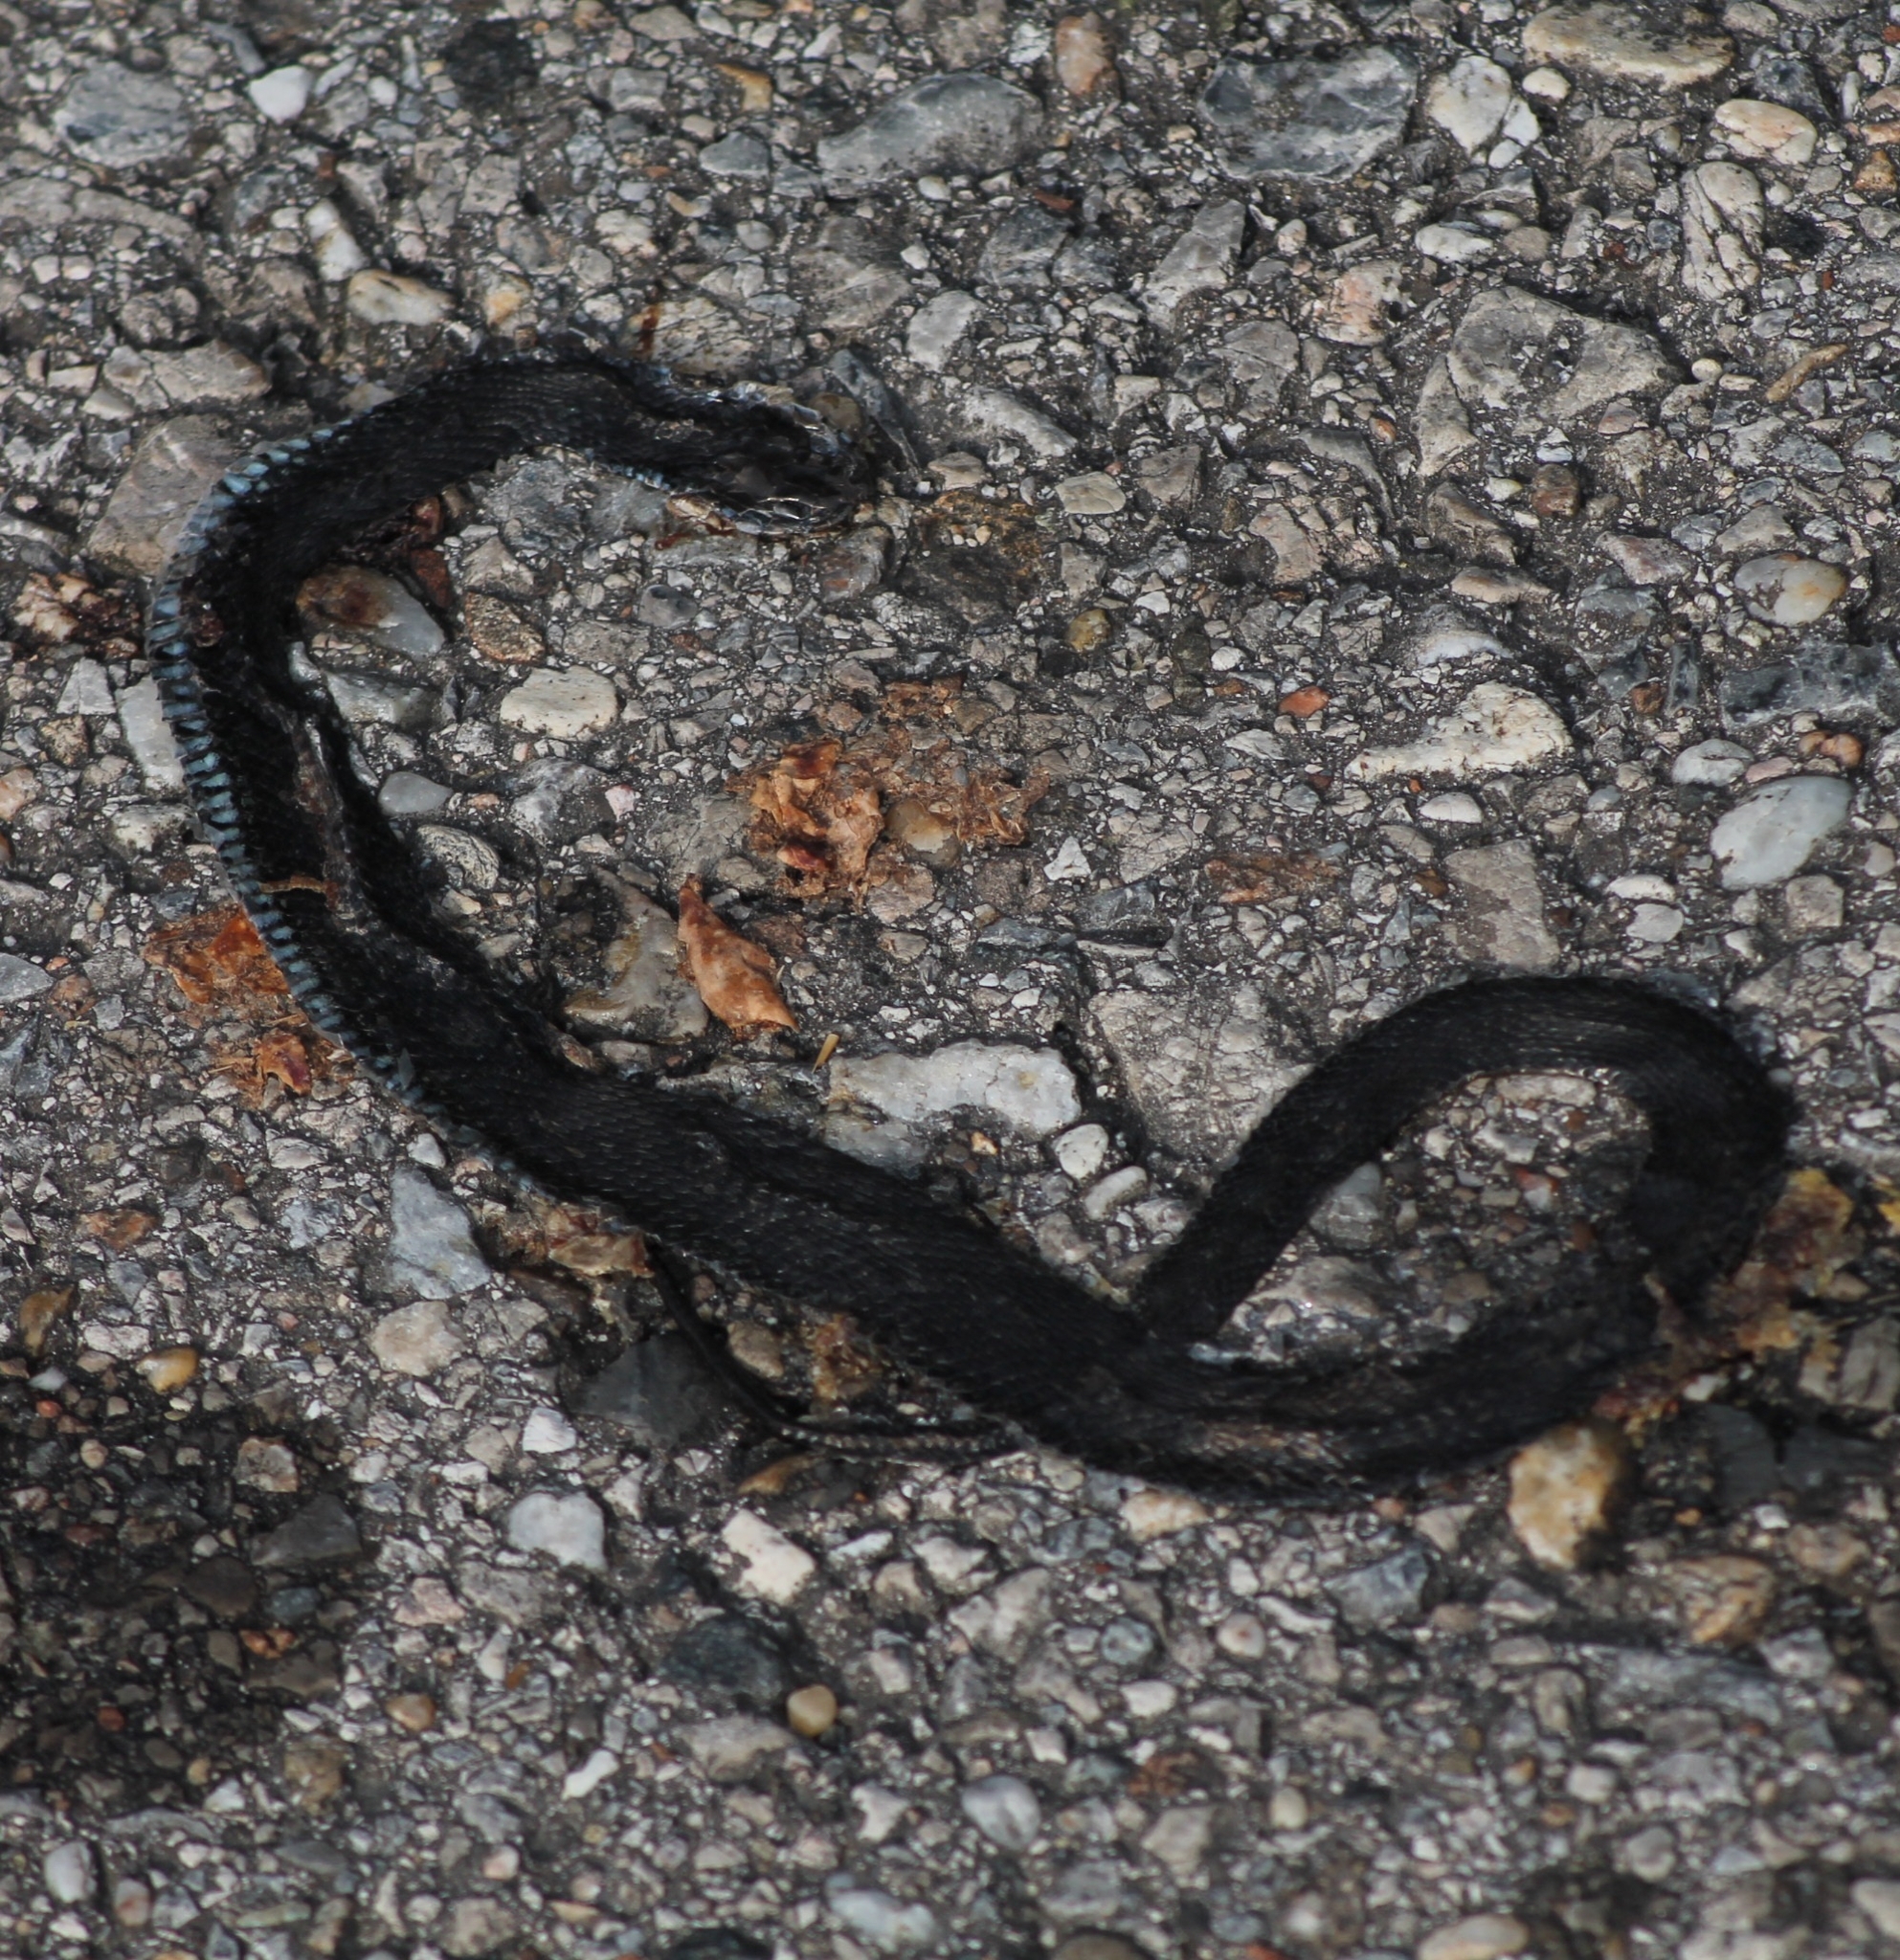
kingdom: Animalia
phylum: Chordata
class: Squamata
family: Colubridae
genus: Natrix
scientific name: Natrix natrix
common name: Grass snake
